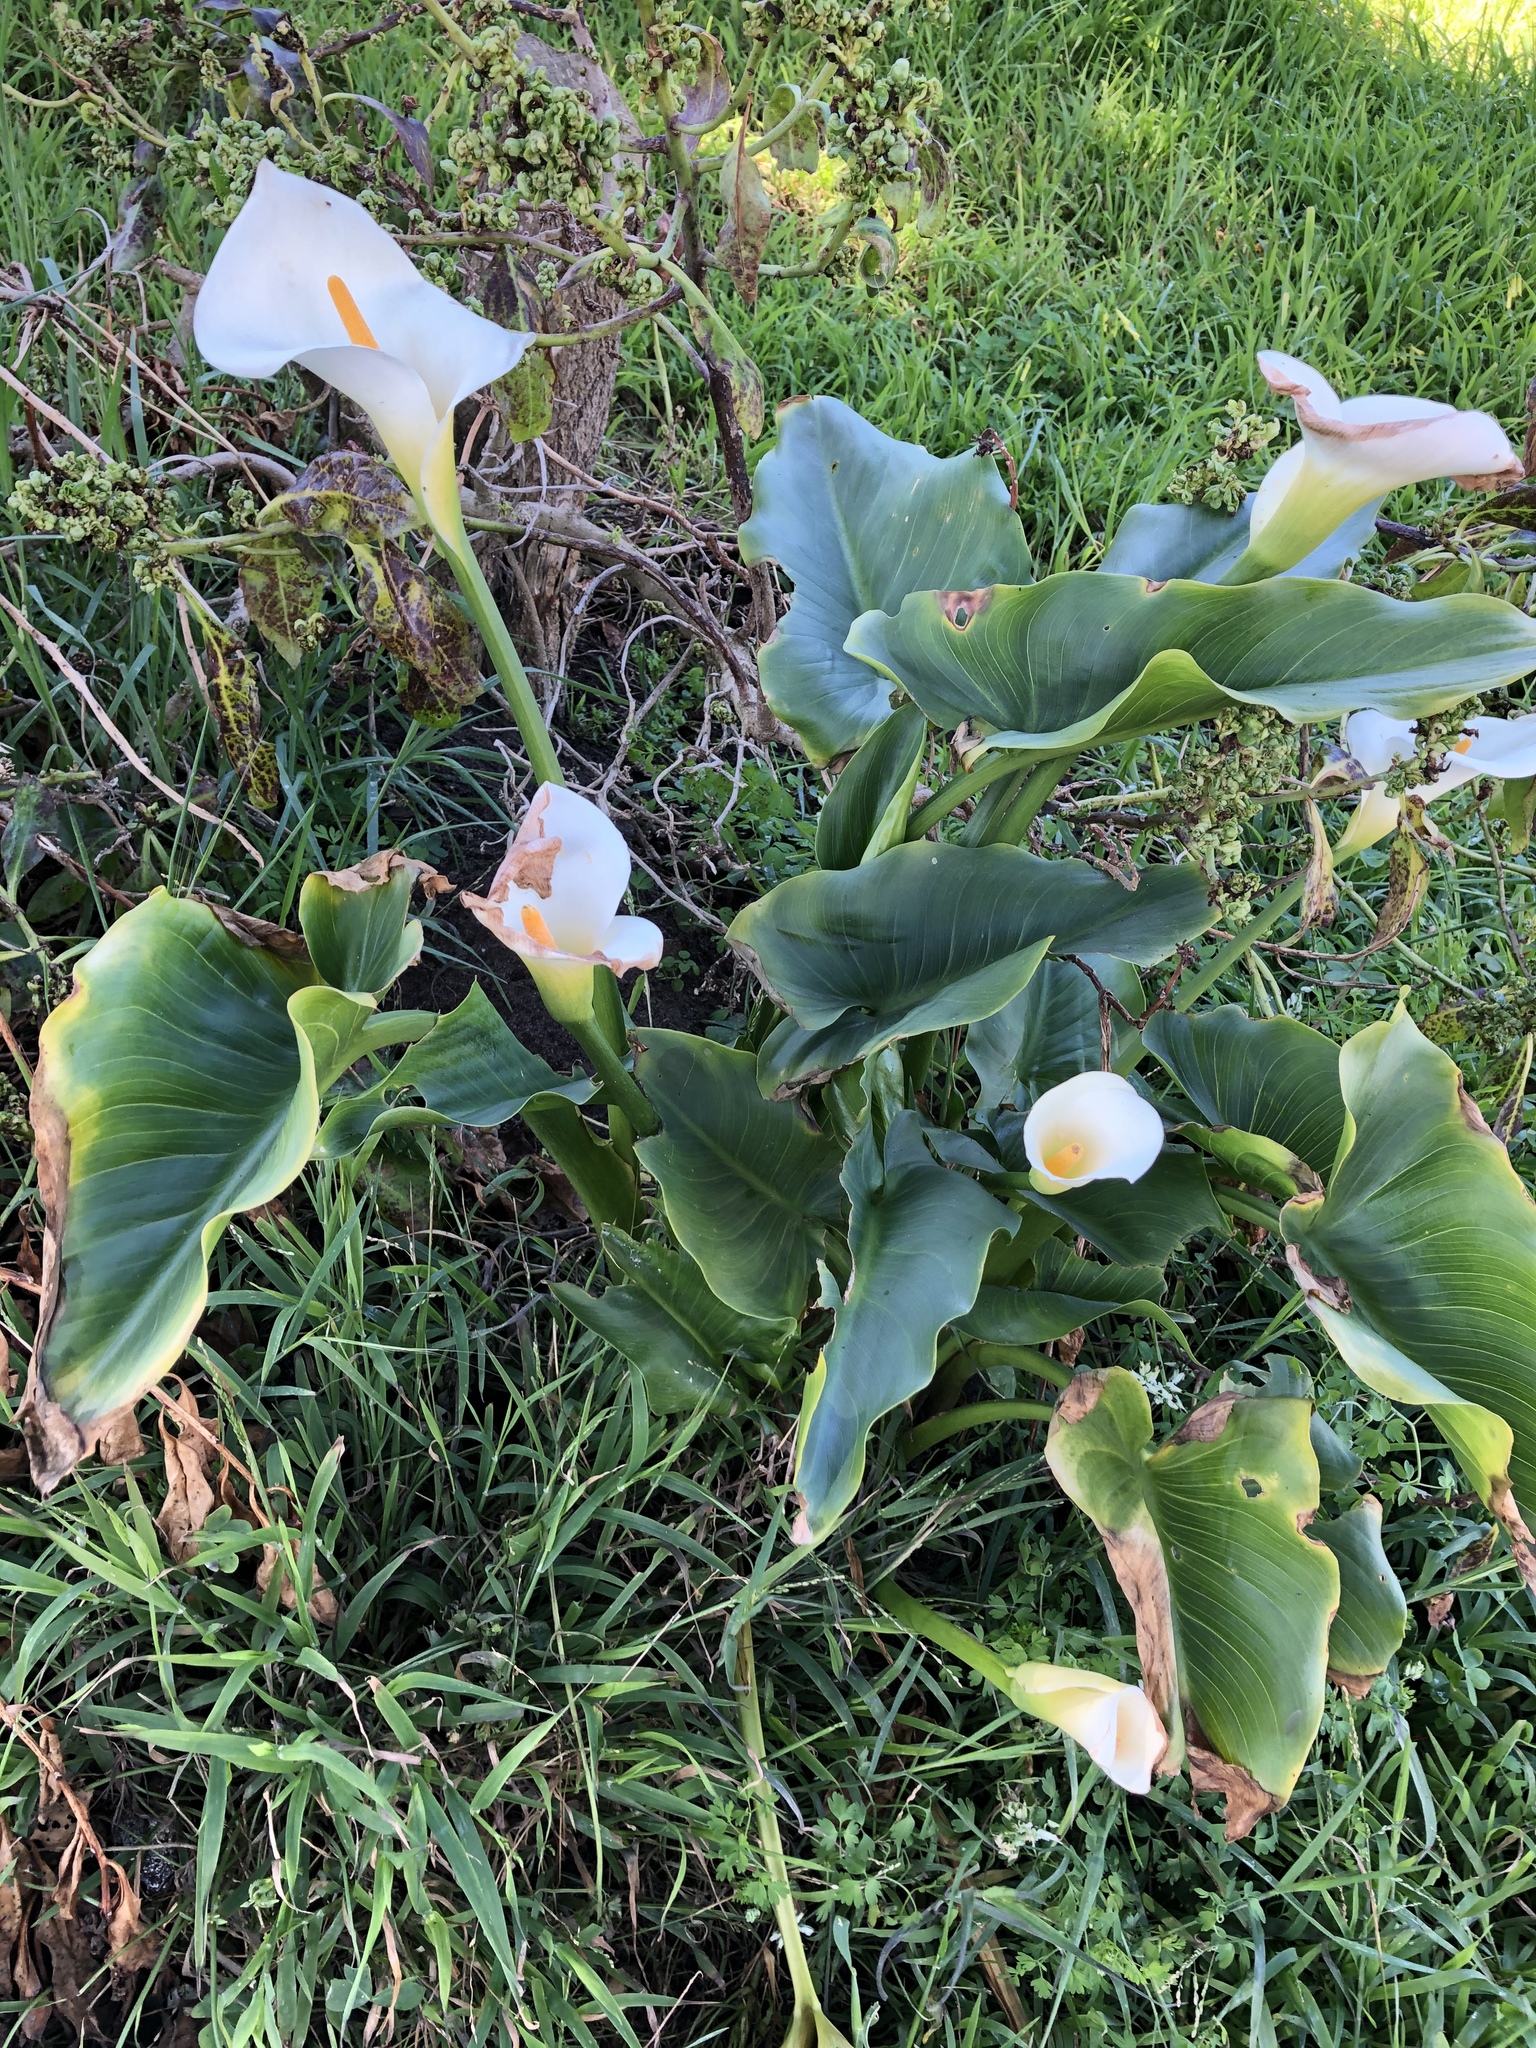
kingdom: Plantae
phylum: Tracheophyta
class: Liliopsida
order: Alismatales
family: Araceae
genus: Zantedeschia
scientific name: Zantedeschia aethiopica
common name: Altar-lily
